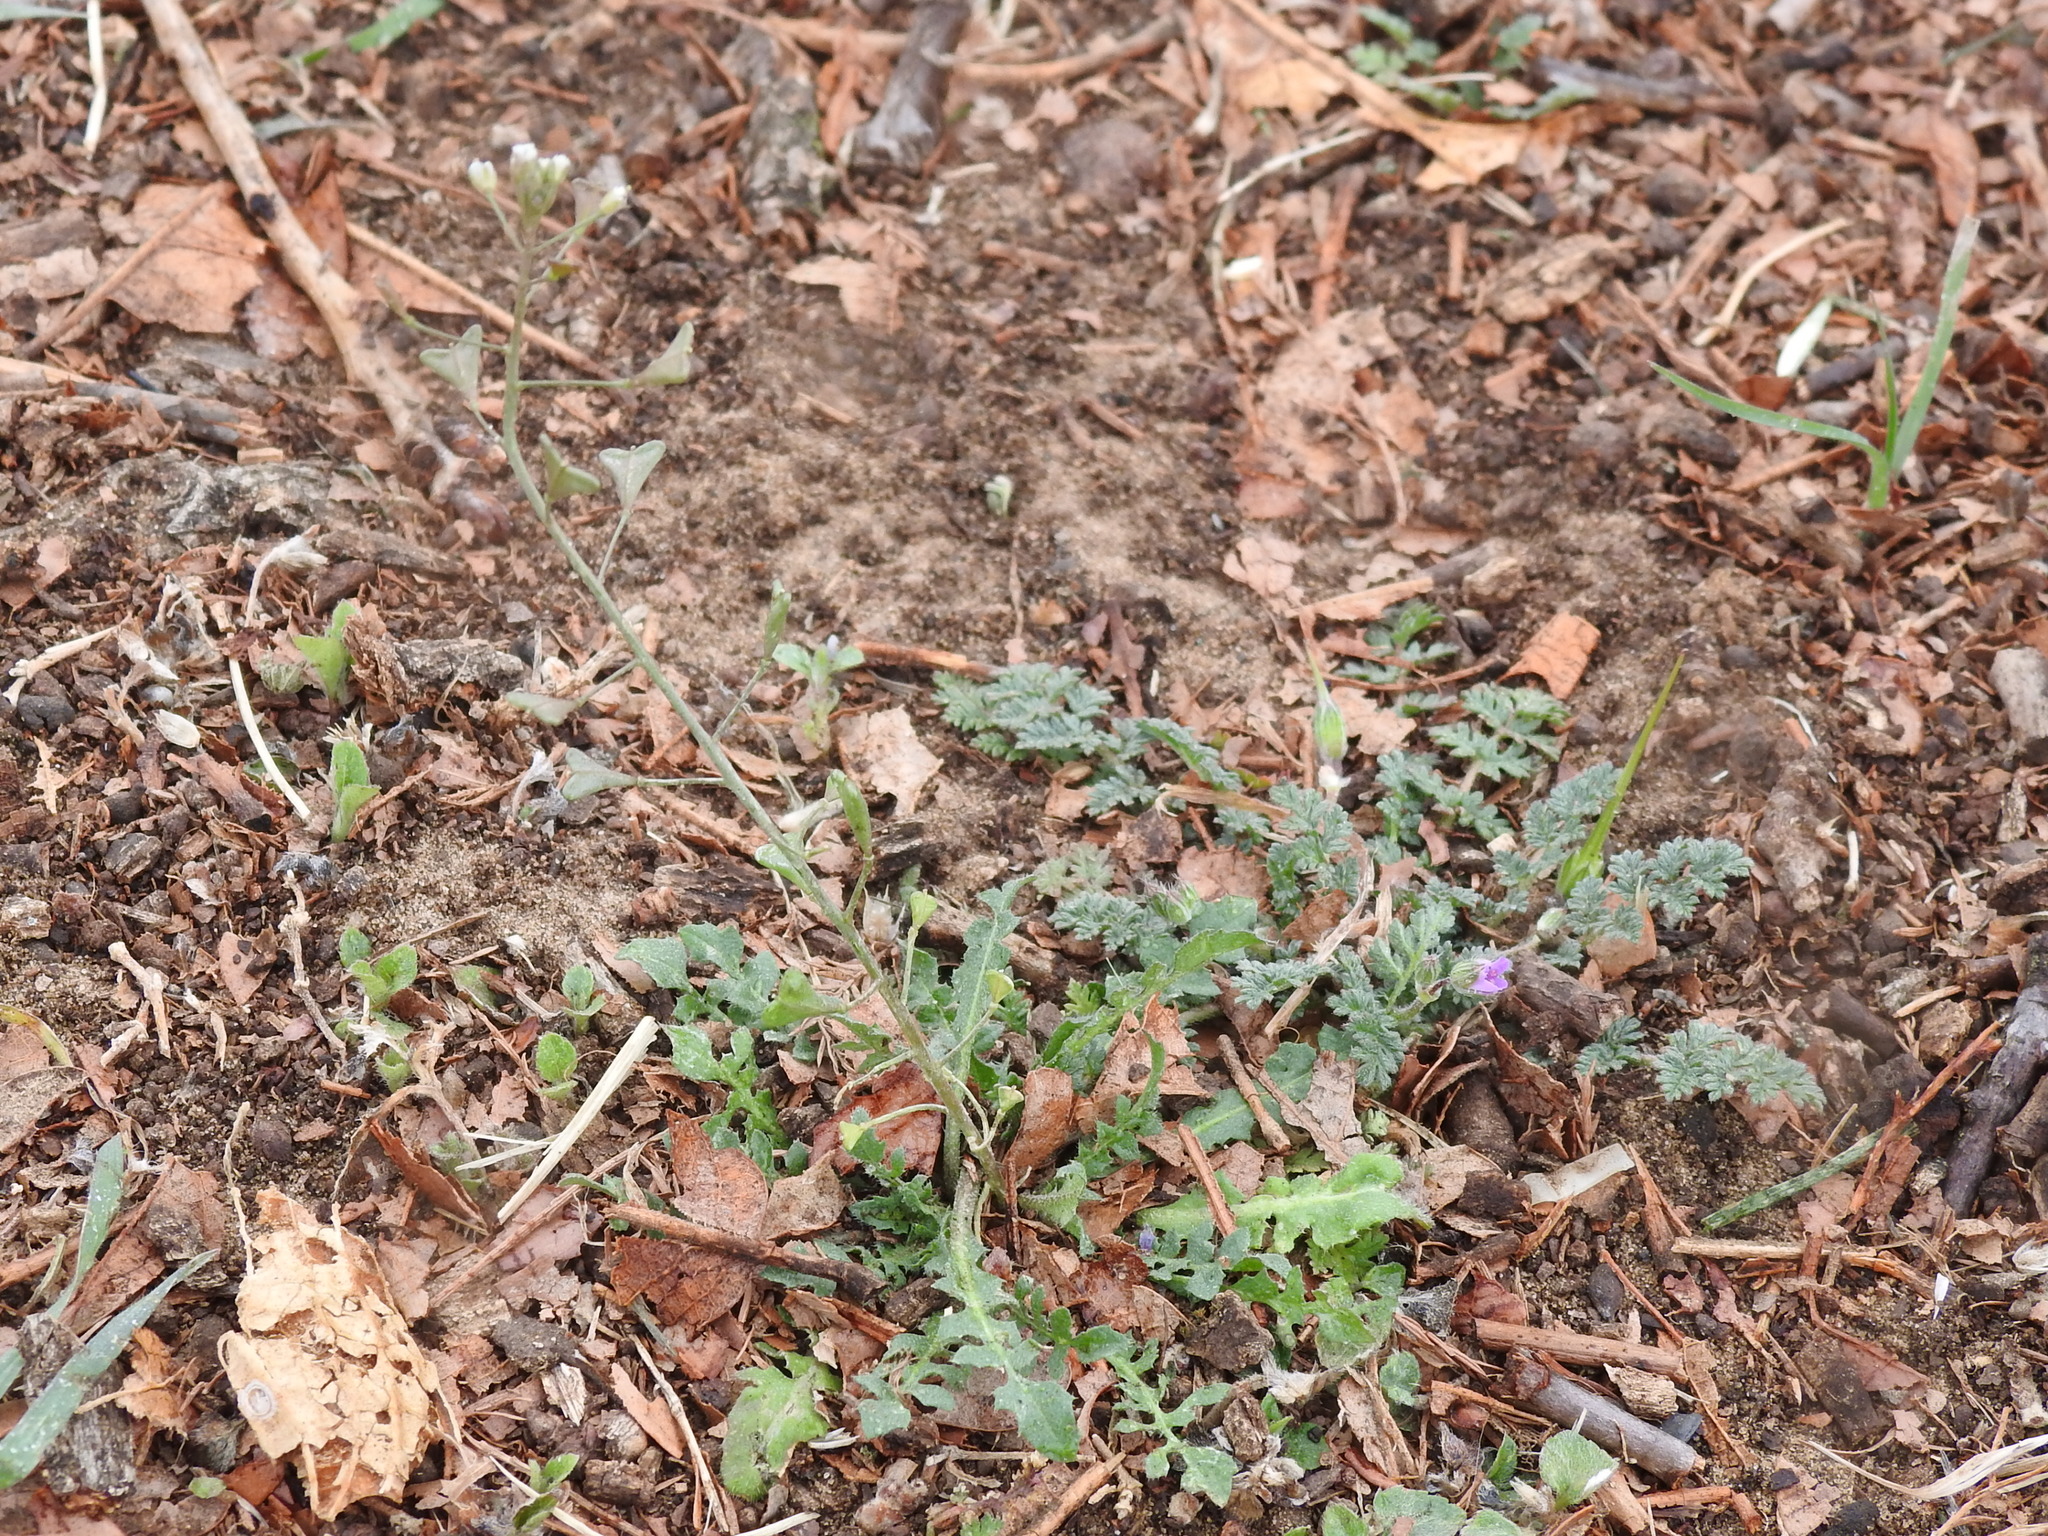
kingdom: Plantae
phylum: Tracheophyta
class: Magnoliopsida
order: Brassicales
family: Brassicaceae
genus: Capsella
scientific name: Capsella bursa-pastoris
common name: Shepherd's purse
